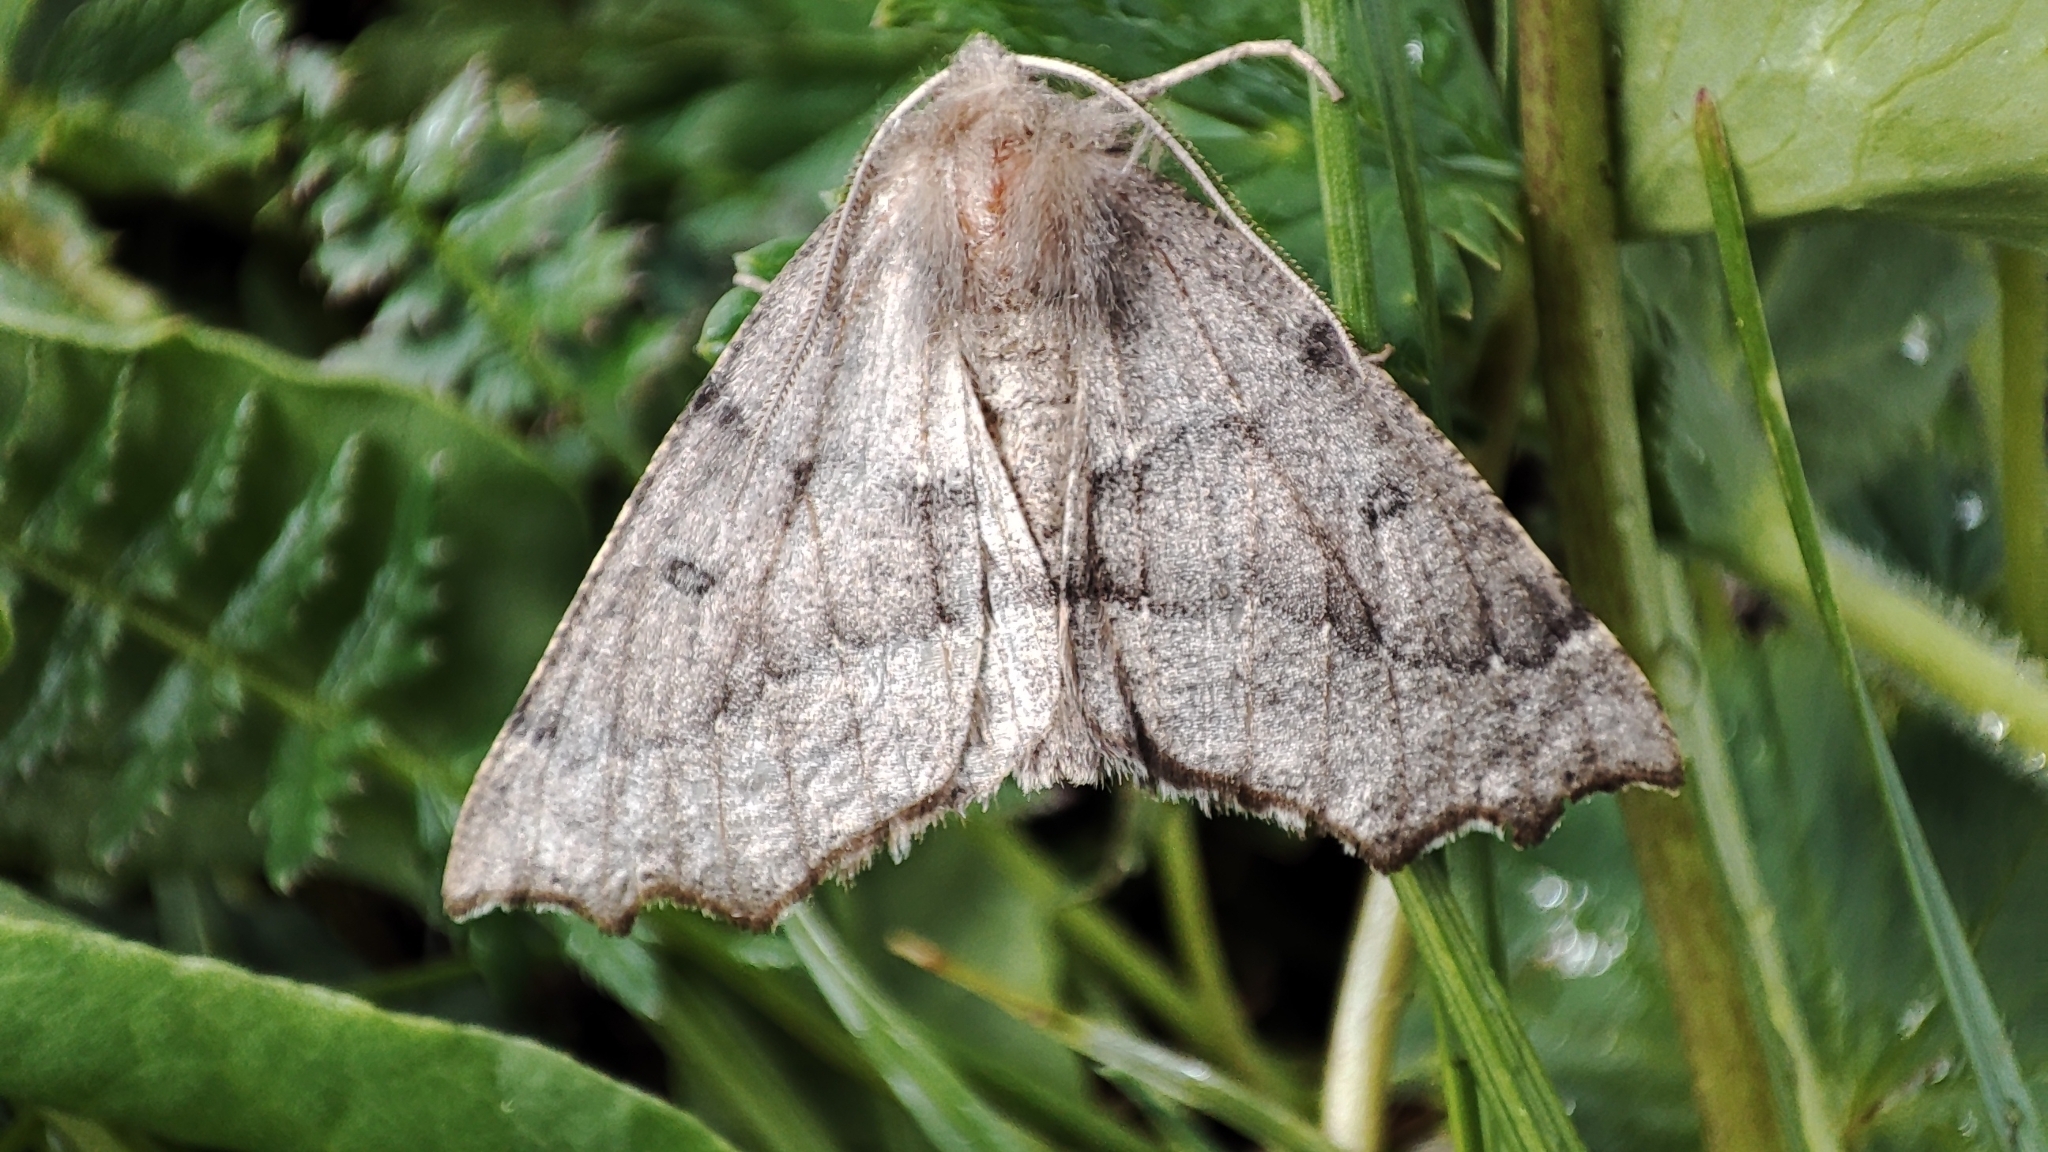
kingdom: Animalia
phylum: Arthropoda
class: Insecta
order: Lepidoptera
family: Geometridae
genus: Odontopera
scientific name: Odontopera bidentata
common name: Scalloped hazel
